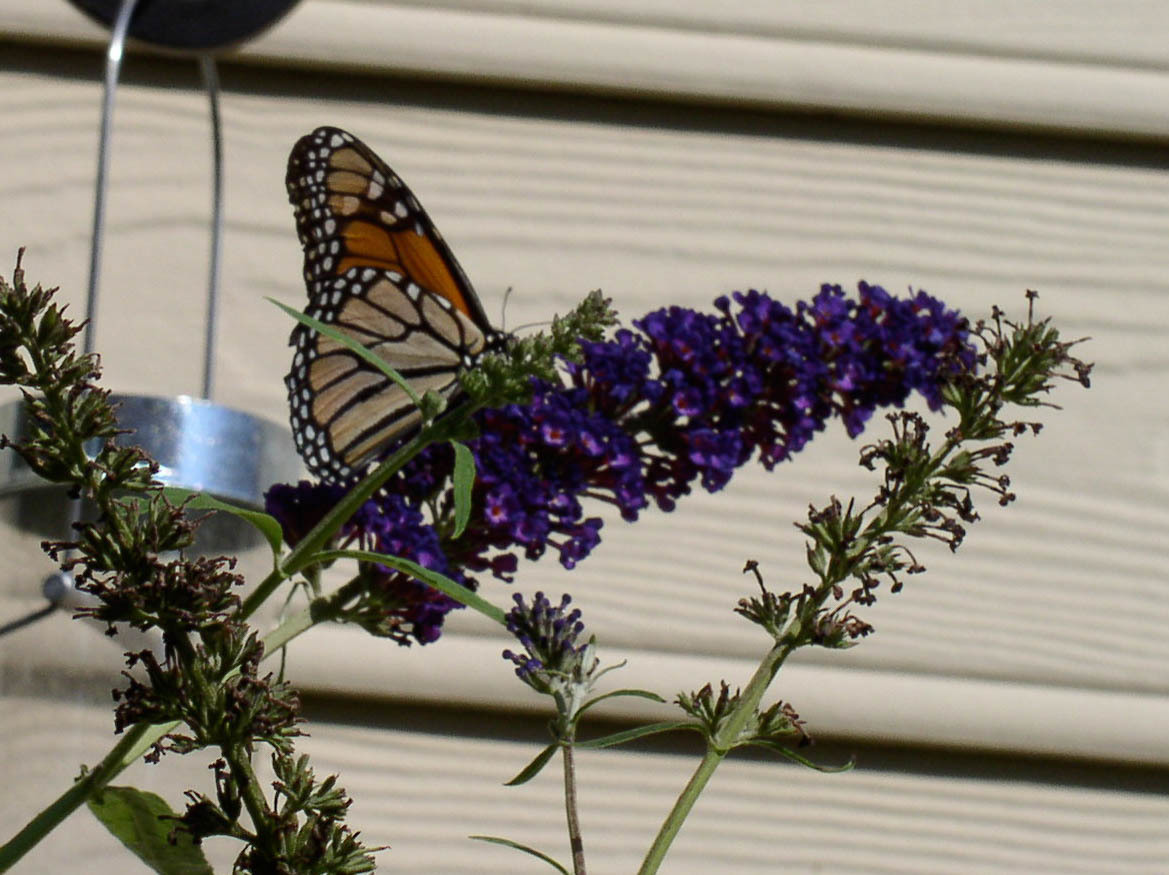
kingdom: Animalia
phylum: Arthropoda
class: Insecta
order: Lepidoptera
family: Nymphalidae
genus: Danaus
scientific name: Danaus plexippus
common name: Monarch
